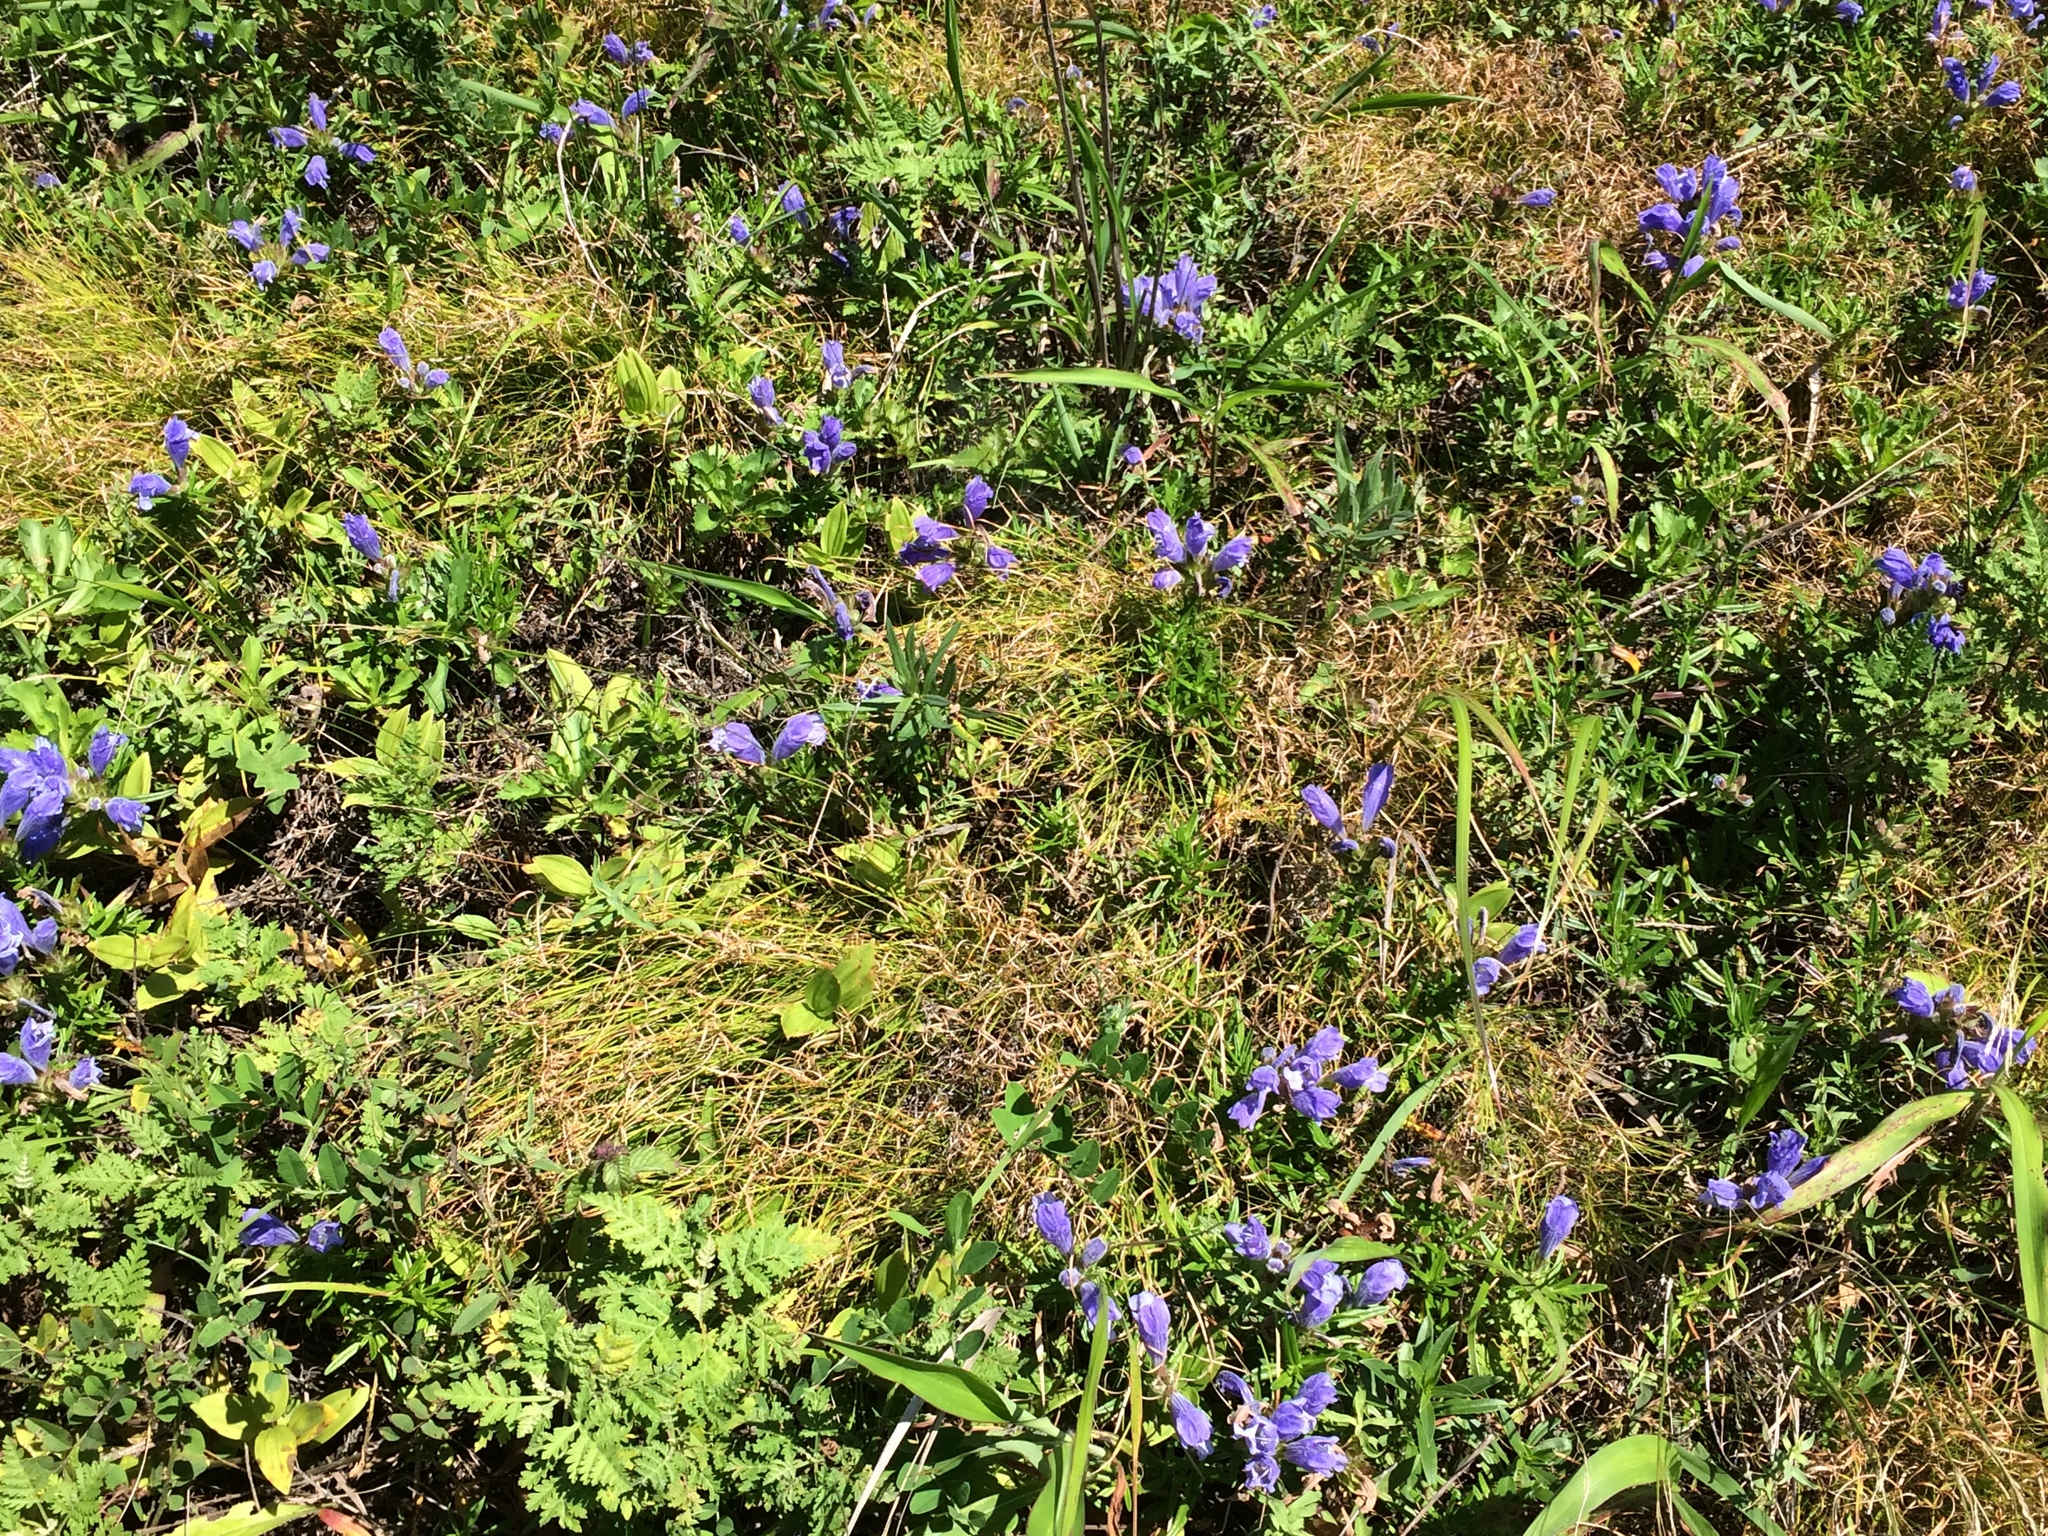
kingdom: Plantae
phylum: Tracheophyta
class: Magnoliopsida
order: Lamiales
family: Lamiaceae
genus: Dracocephalum
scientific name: Dracocephalum charkeviczii
